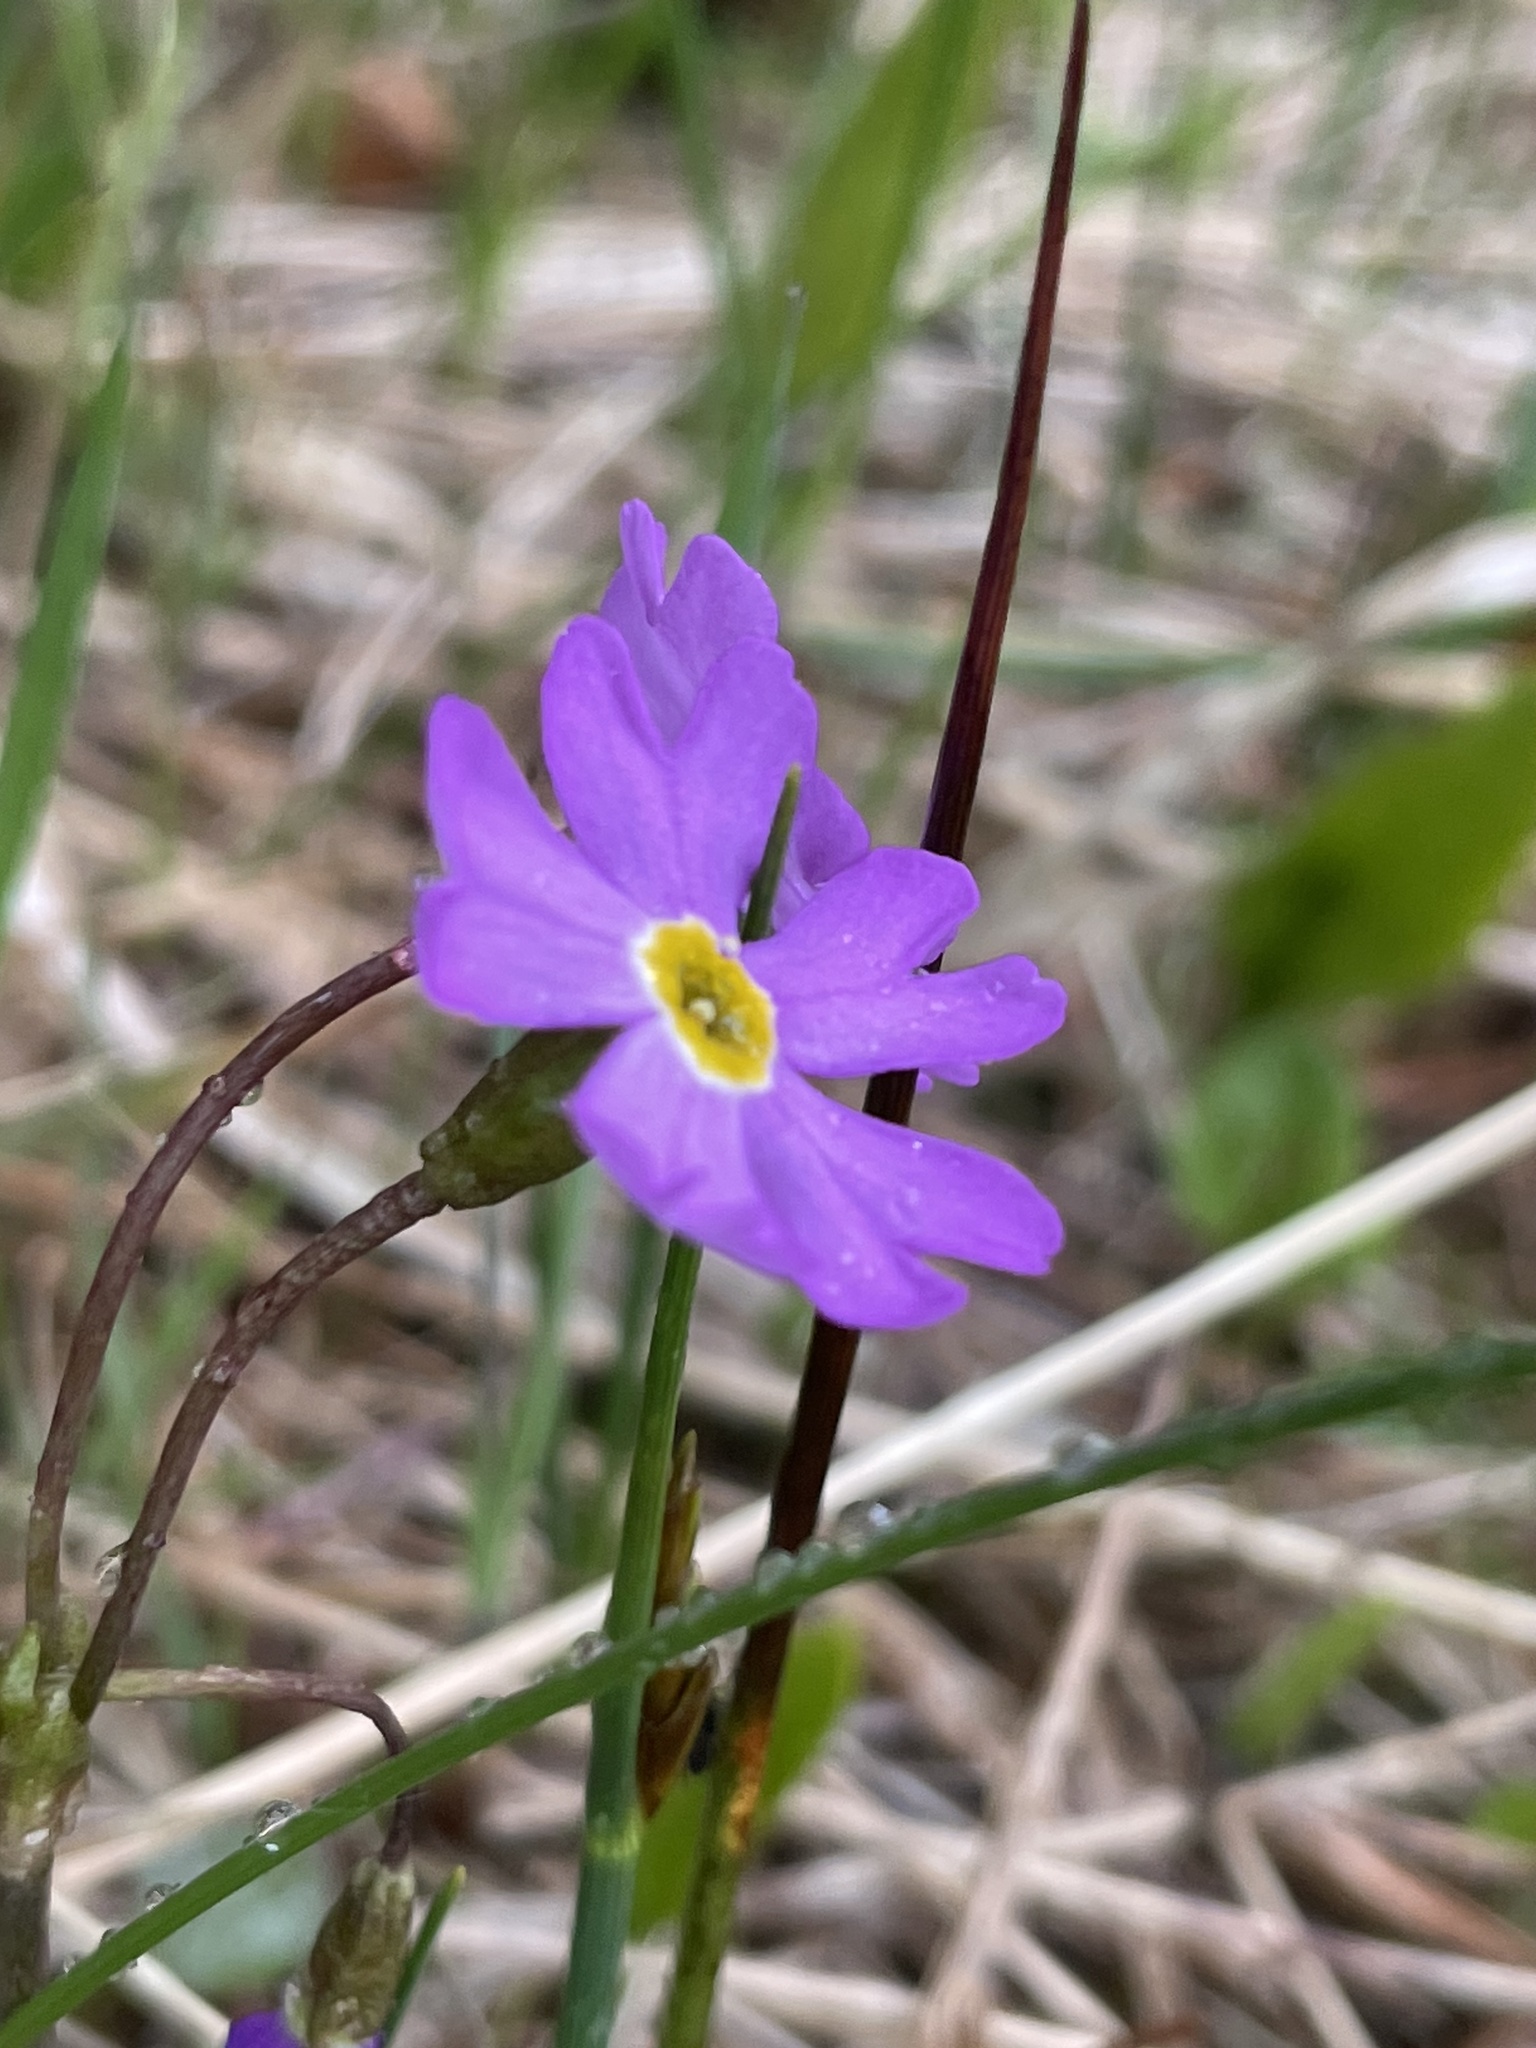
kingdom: Plantae
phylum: Tracheophyta
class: Magnoliopsida
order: Ericales
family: Primulaceae
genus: Primula
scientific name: Primula nutans
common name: Siberian primrose
